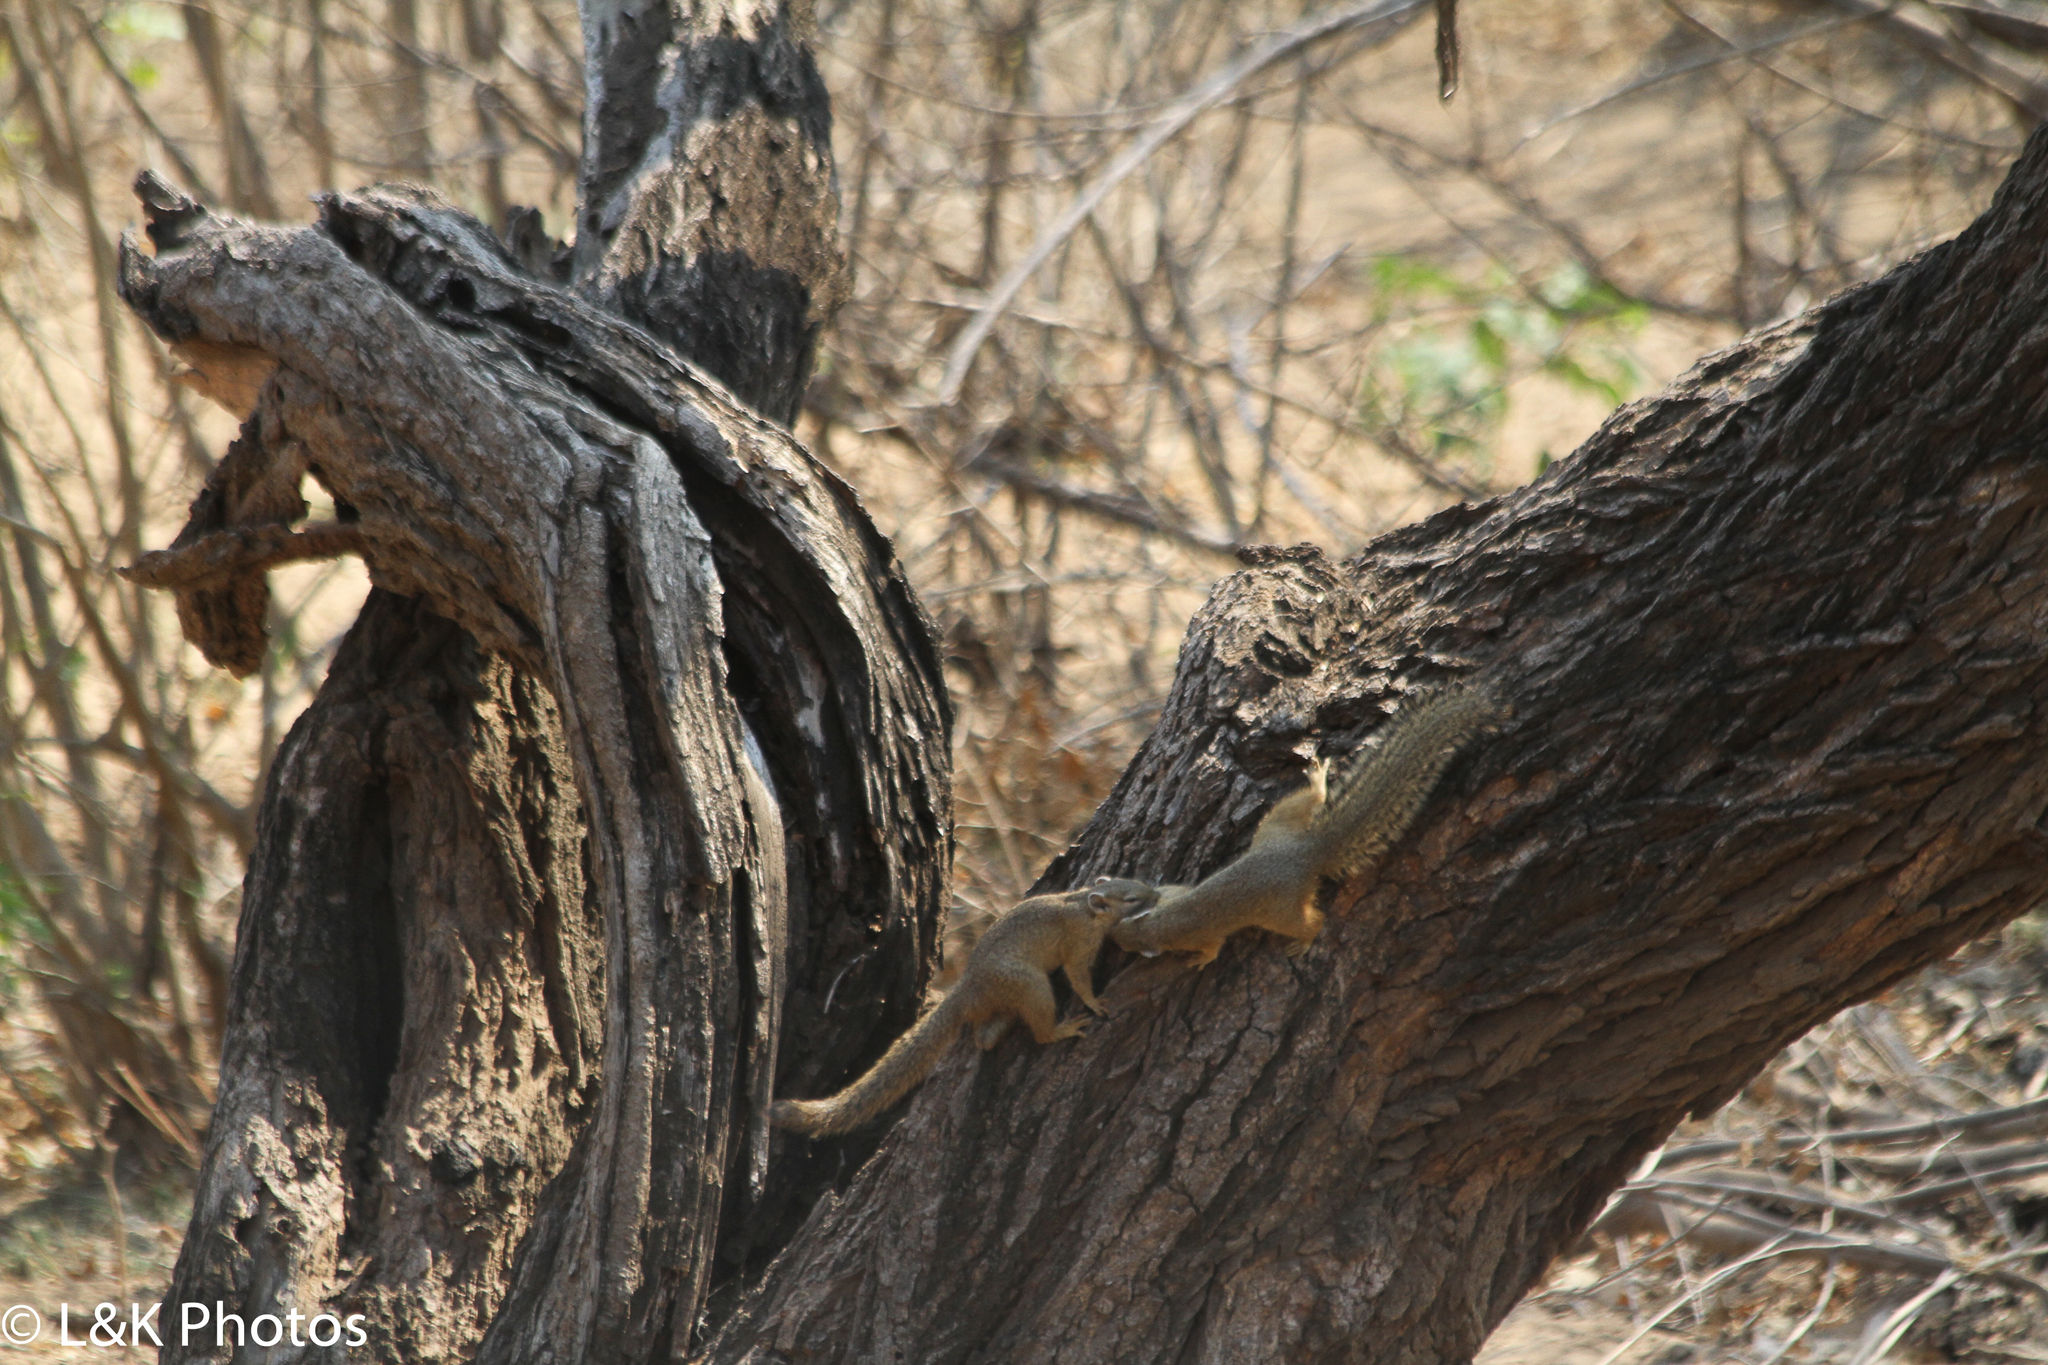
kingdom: Animalia
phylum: Chordata
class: Mammalia
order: Rodentia
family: Sciuridae
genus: Paraxerus
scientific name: Paraxerus cepapi
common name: Smith's bush squirrel
